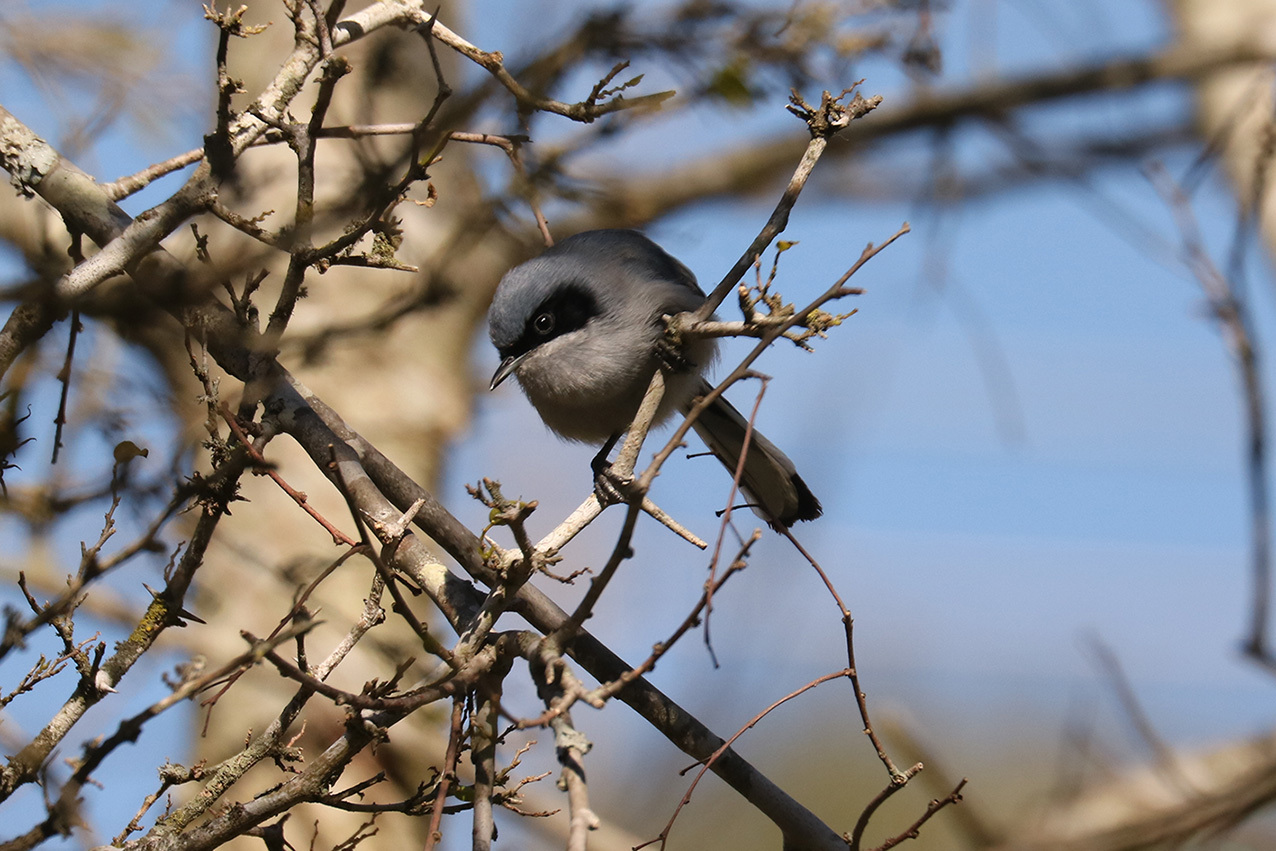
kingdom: Animalia
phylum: Chordata
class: Aves
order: Passeriformes
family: Polioptilidae
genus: Polioptila
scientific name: Polioptila dumicola
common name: Masked gnatcatcher
